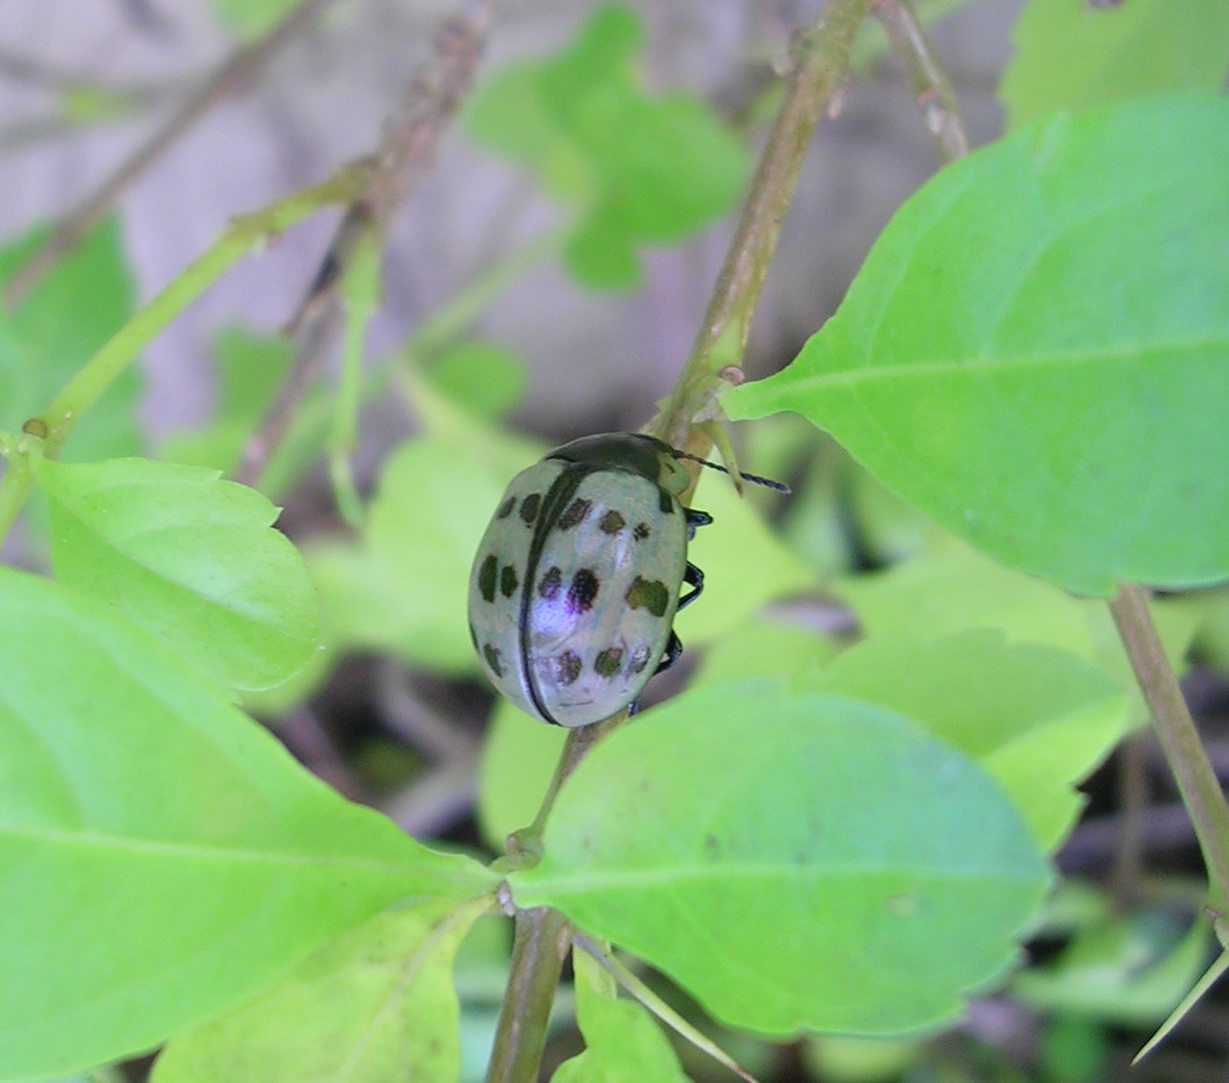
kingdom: Animalia
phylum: Arthropoda
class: Insecta
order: Coleoptera
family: Chrysomelidae
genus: Platyphora
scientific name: Platyphora
